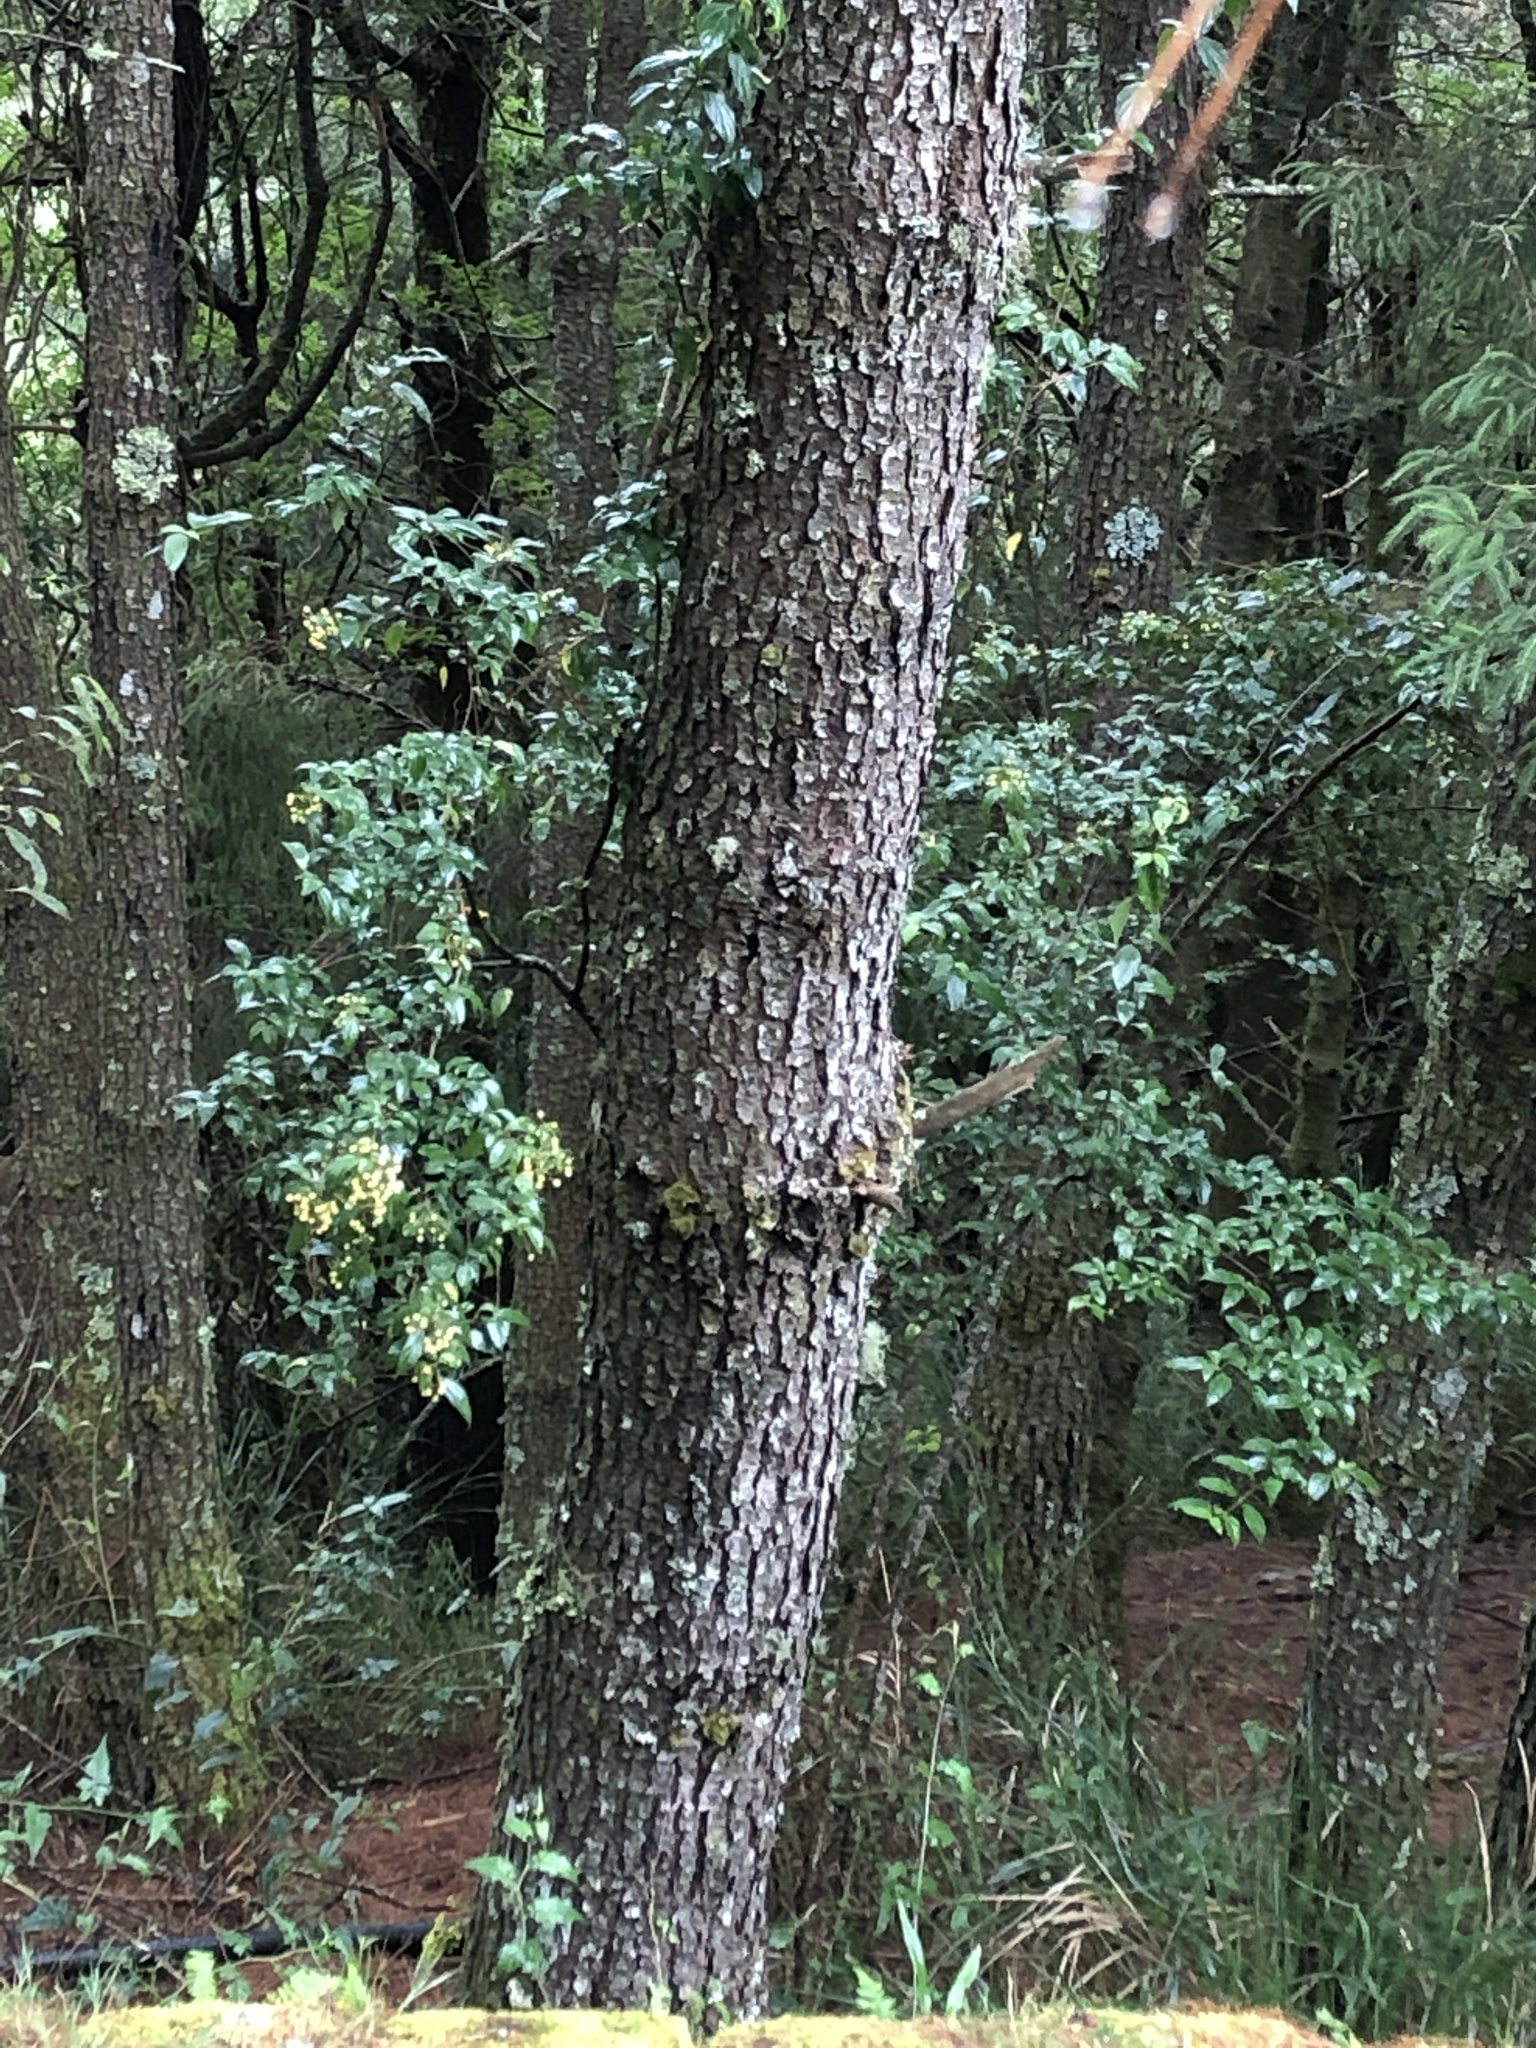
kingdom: Plantae
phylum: Tracheophyta
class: Pinopsida
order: Pinales
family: Pinaceae
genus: Pinus
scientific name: Pinus taiwanensis
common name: Formosa pine
